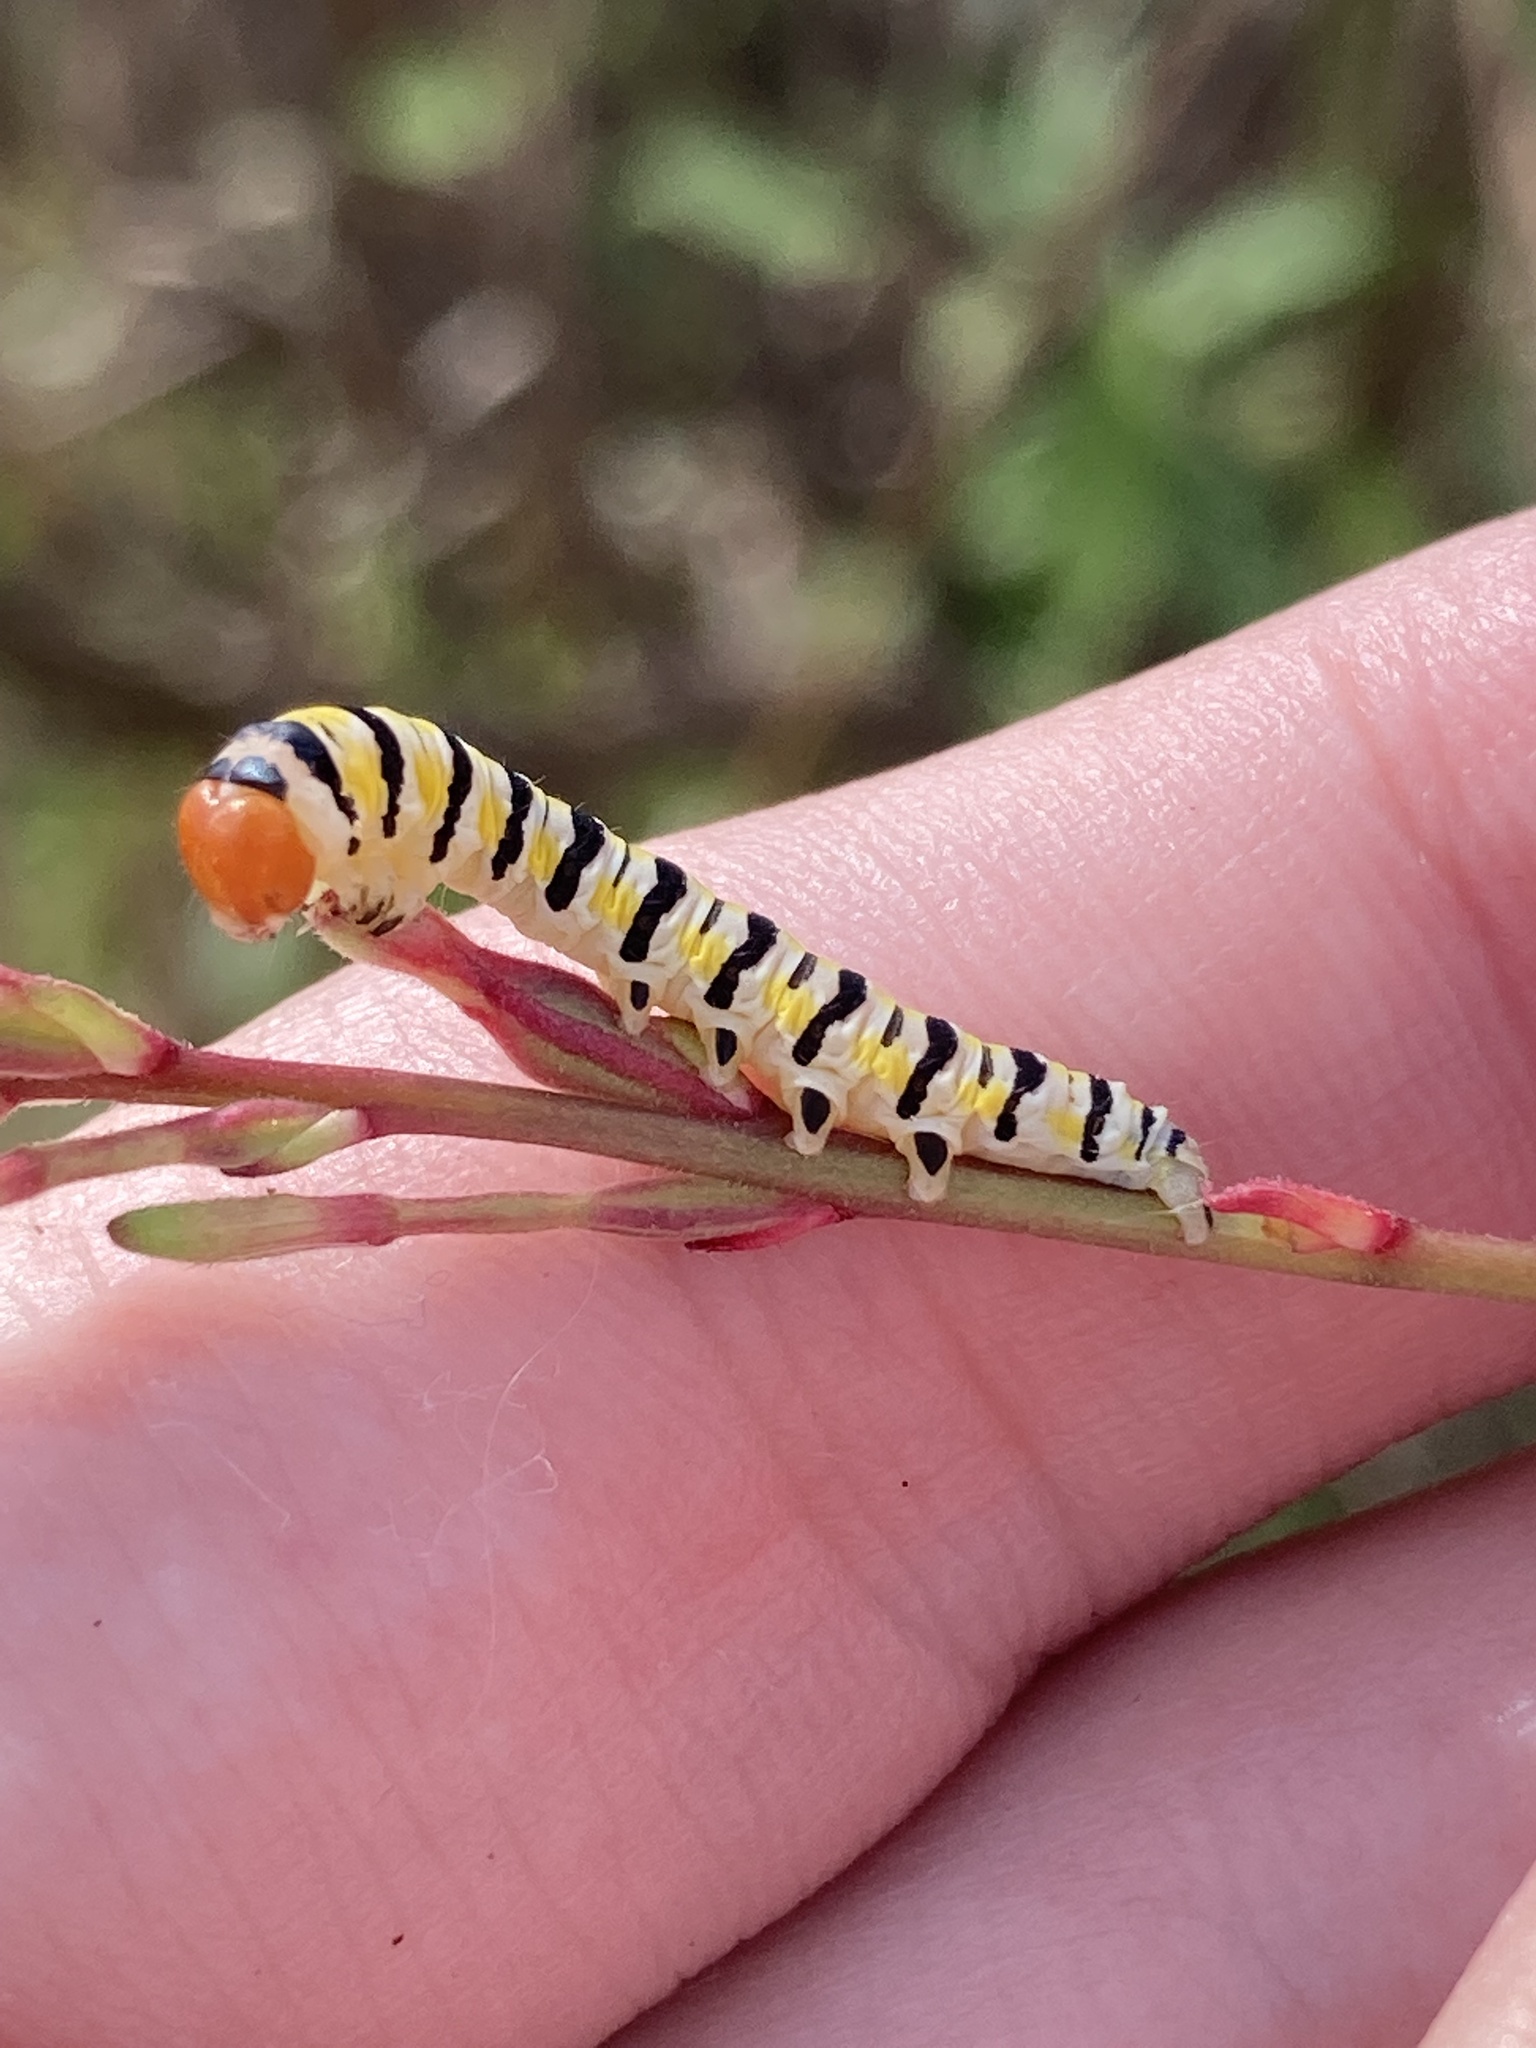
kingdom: Animalia
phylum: Arthropoda
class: Insecta
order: Lepidoptera
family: Noctuidae
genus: Schinia
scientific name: Schinia gaurae
